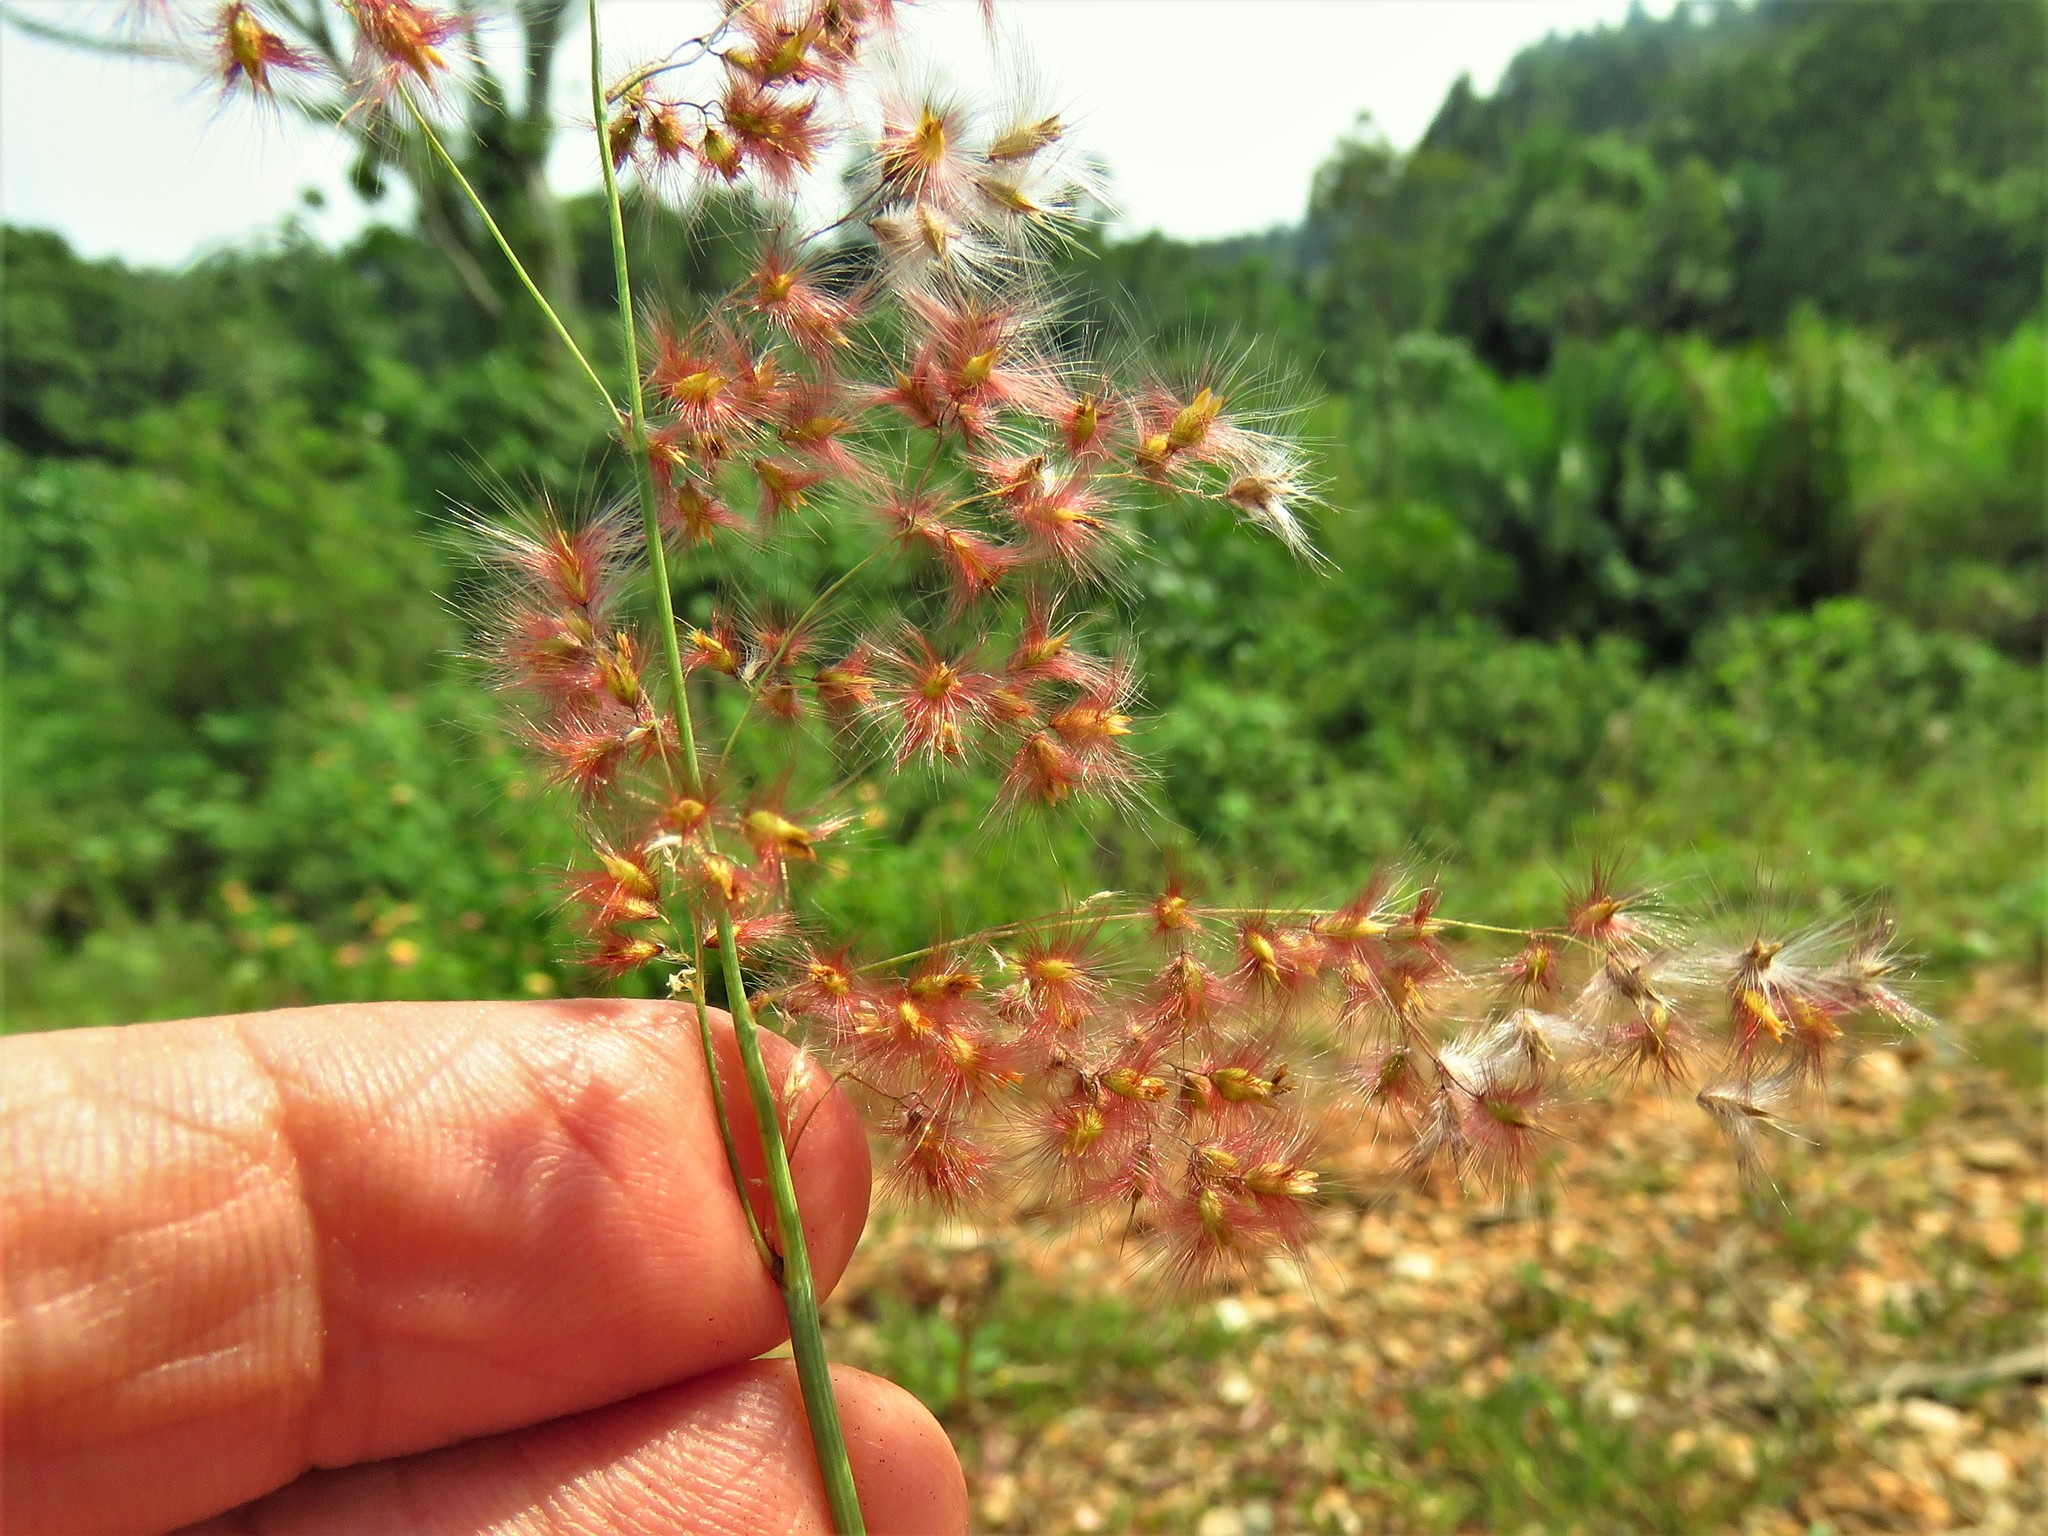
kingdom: Plantae
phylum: Tracheophyta
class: Liliopsida
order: Poales
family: Poaceae
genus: Melinis
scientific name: Melinis repens
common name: Rose natal grass
